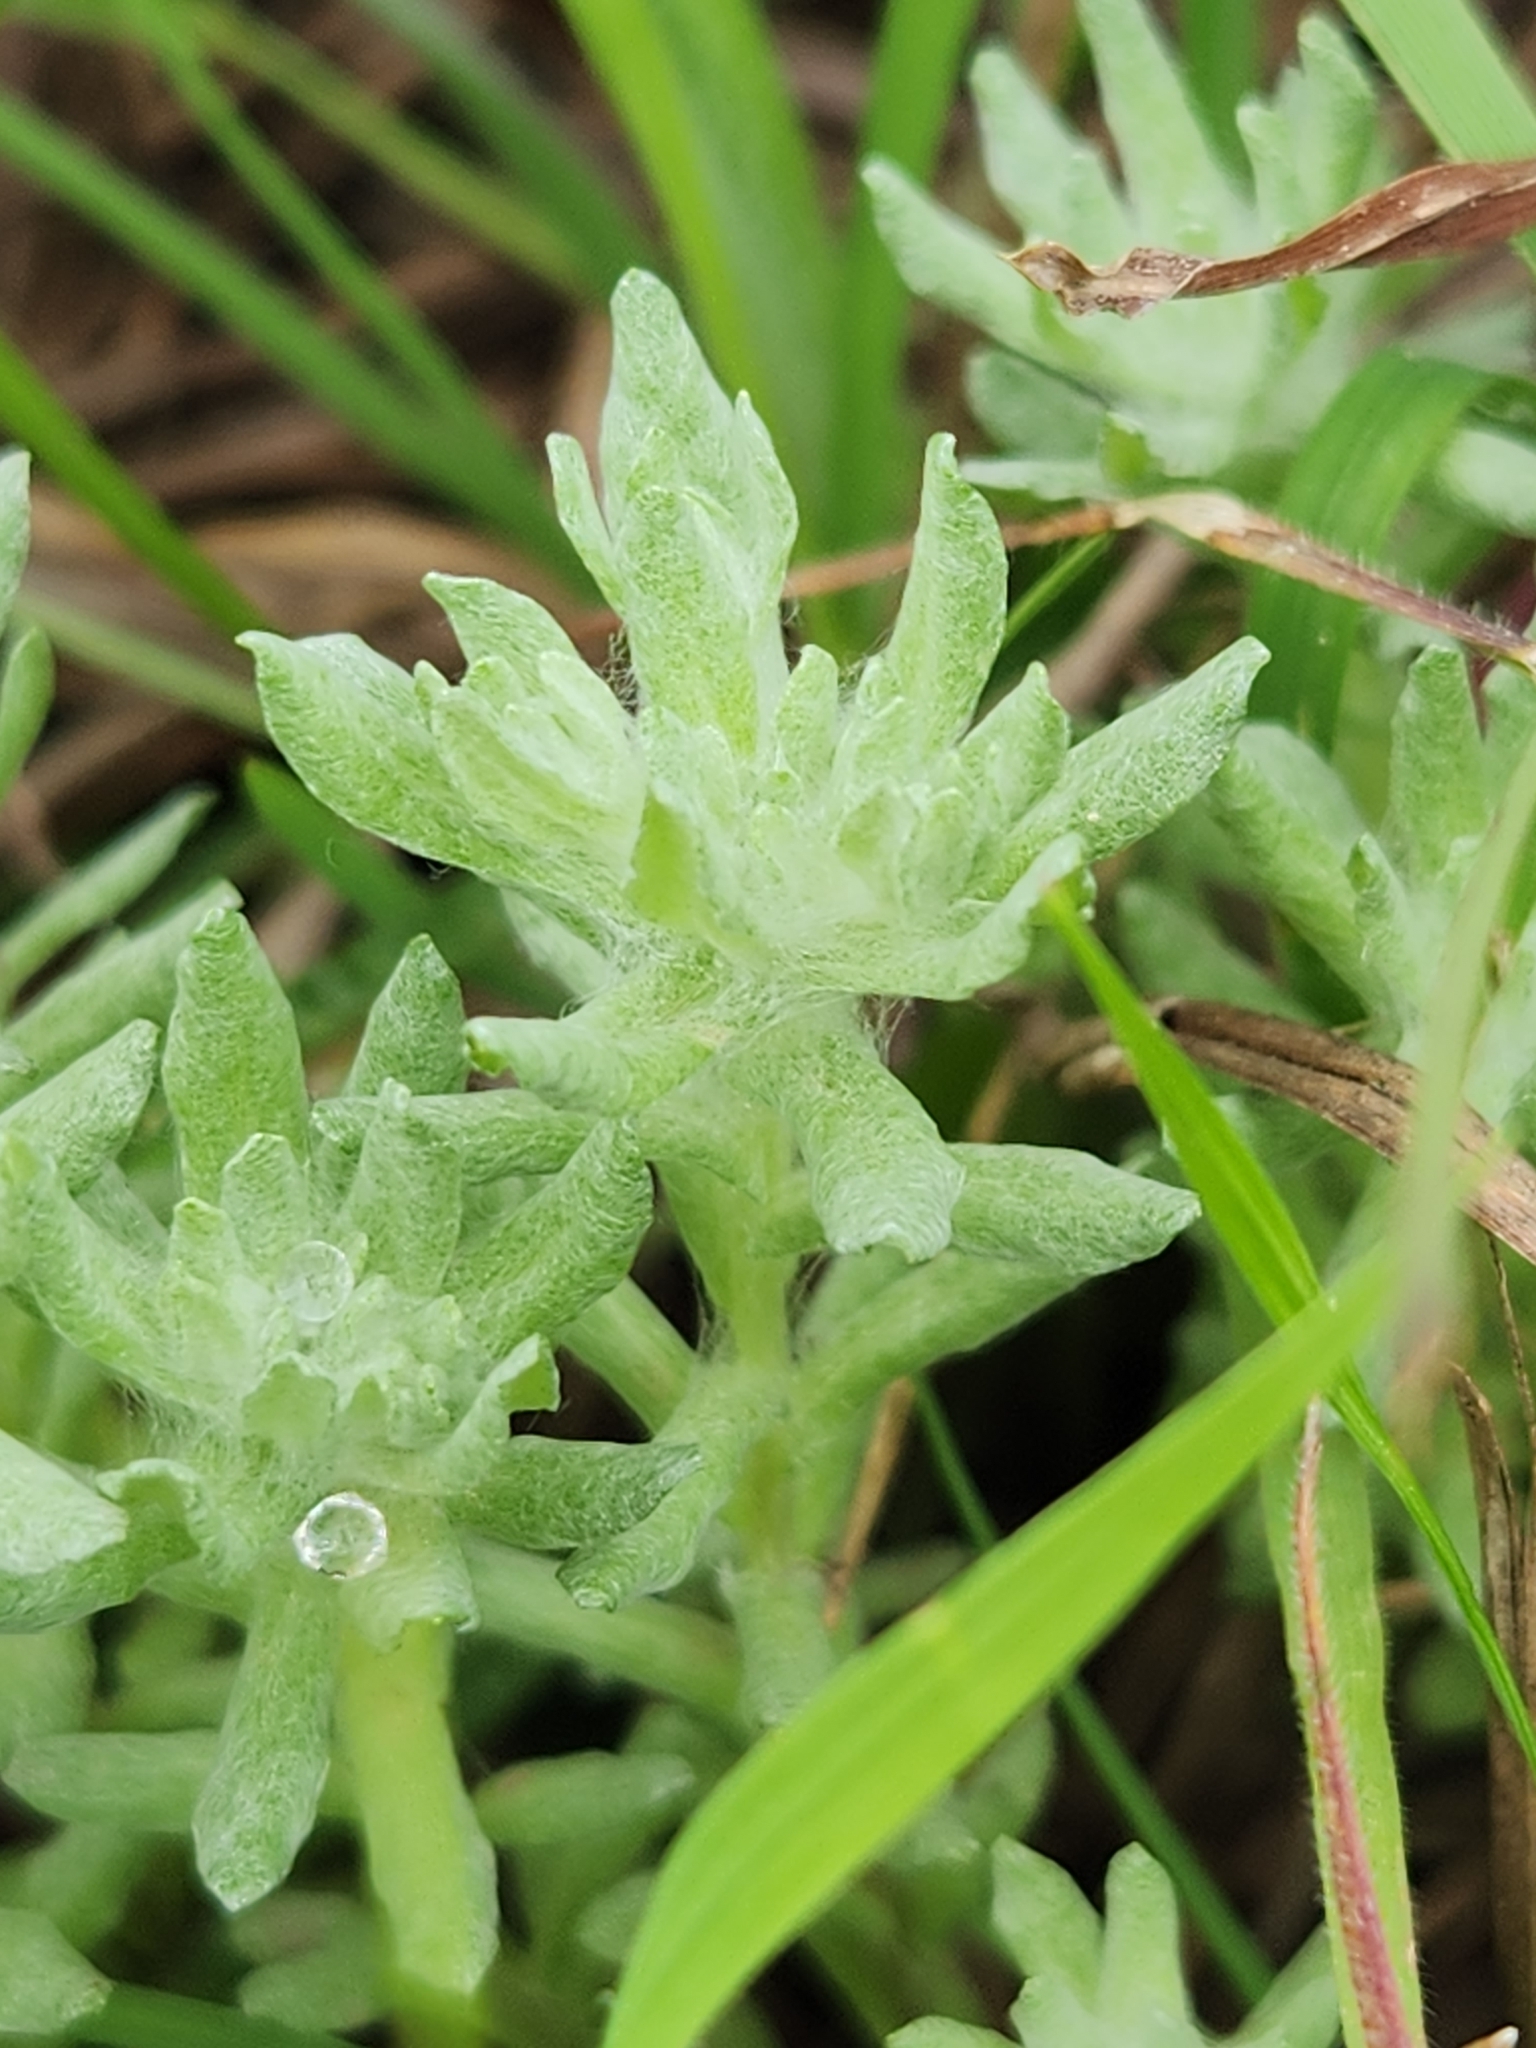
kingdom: Plantae
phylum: Tracheophyta
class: Magnoliopsida
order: Asterales
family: Asteraceae
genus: Diaperia
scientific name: Diaperia prolifera
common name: Big-head rabbit-tobacco
